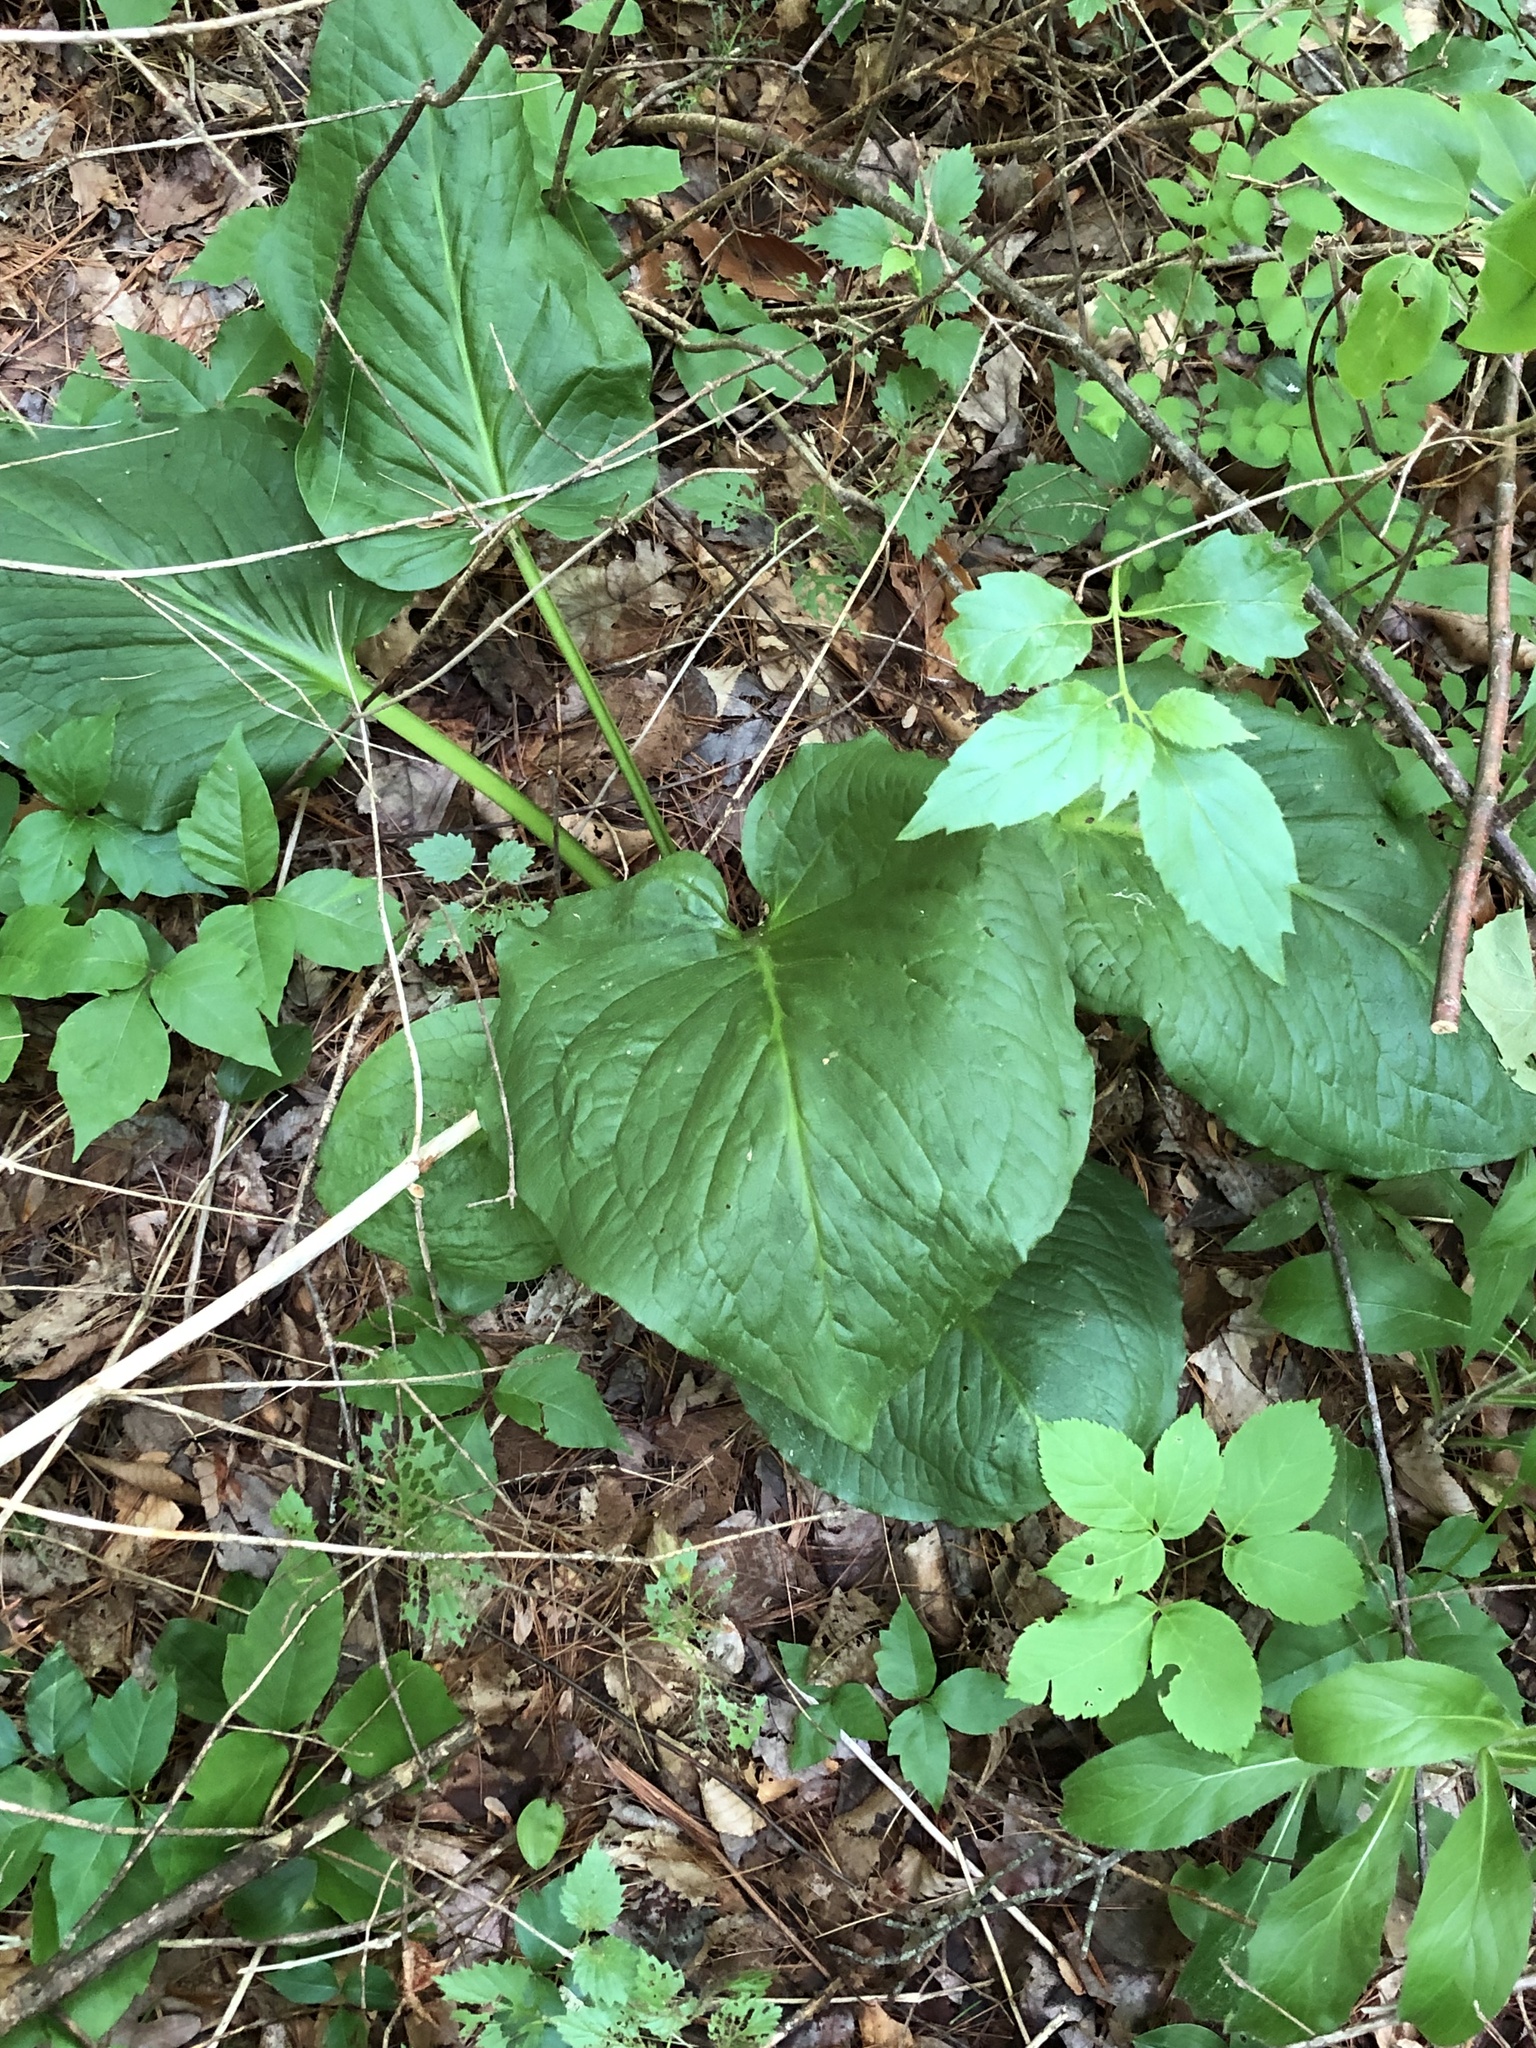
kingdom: Plantae
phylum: Tracheophyta
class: Liliopsida
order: Alismatales
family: Araceae
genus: Symplocarpus
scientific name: Symplocarpus foetidus
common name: Eastern skunk cabbage
